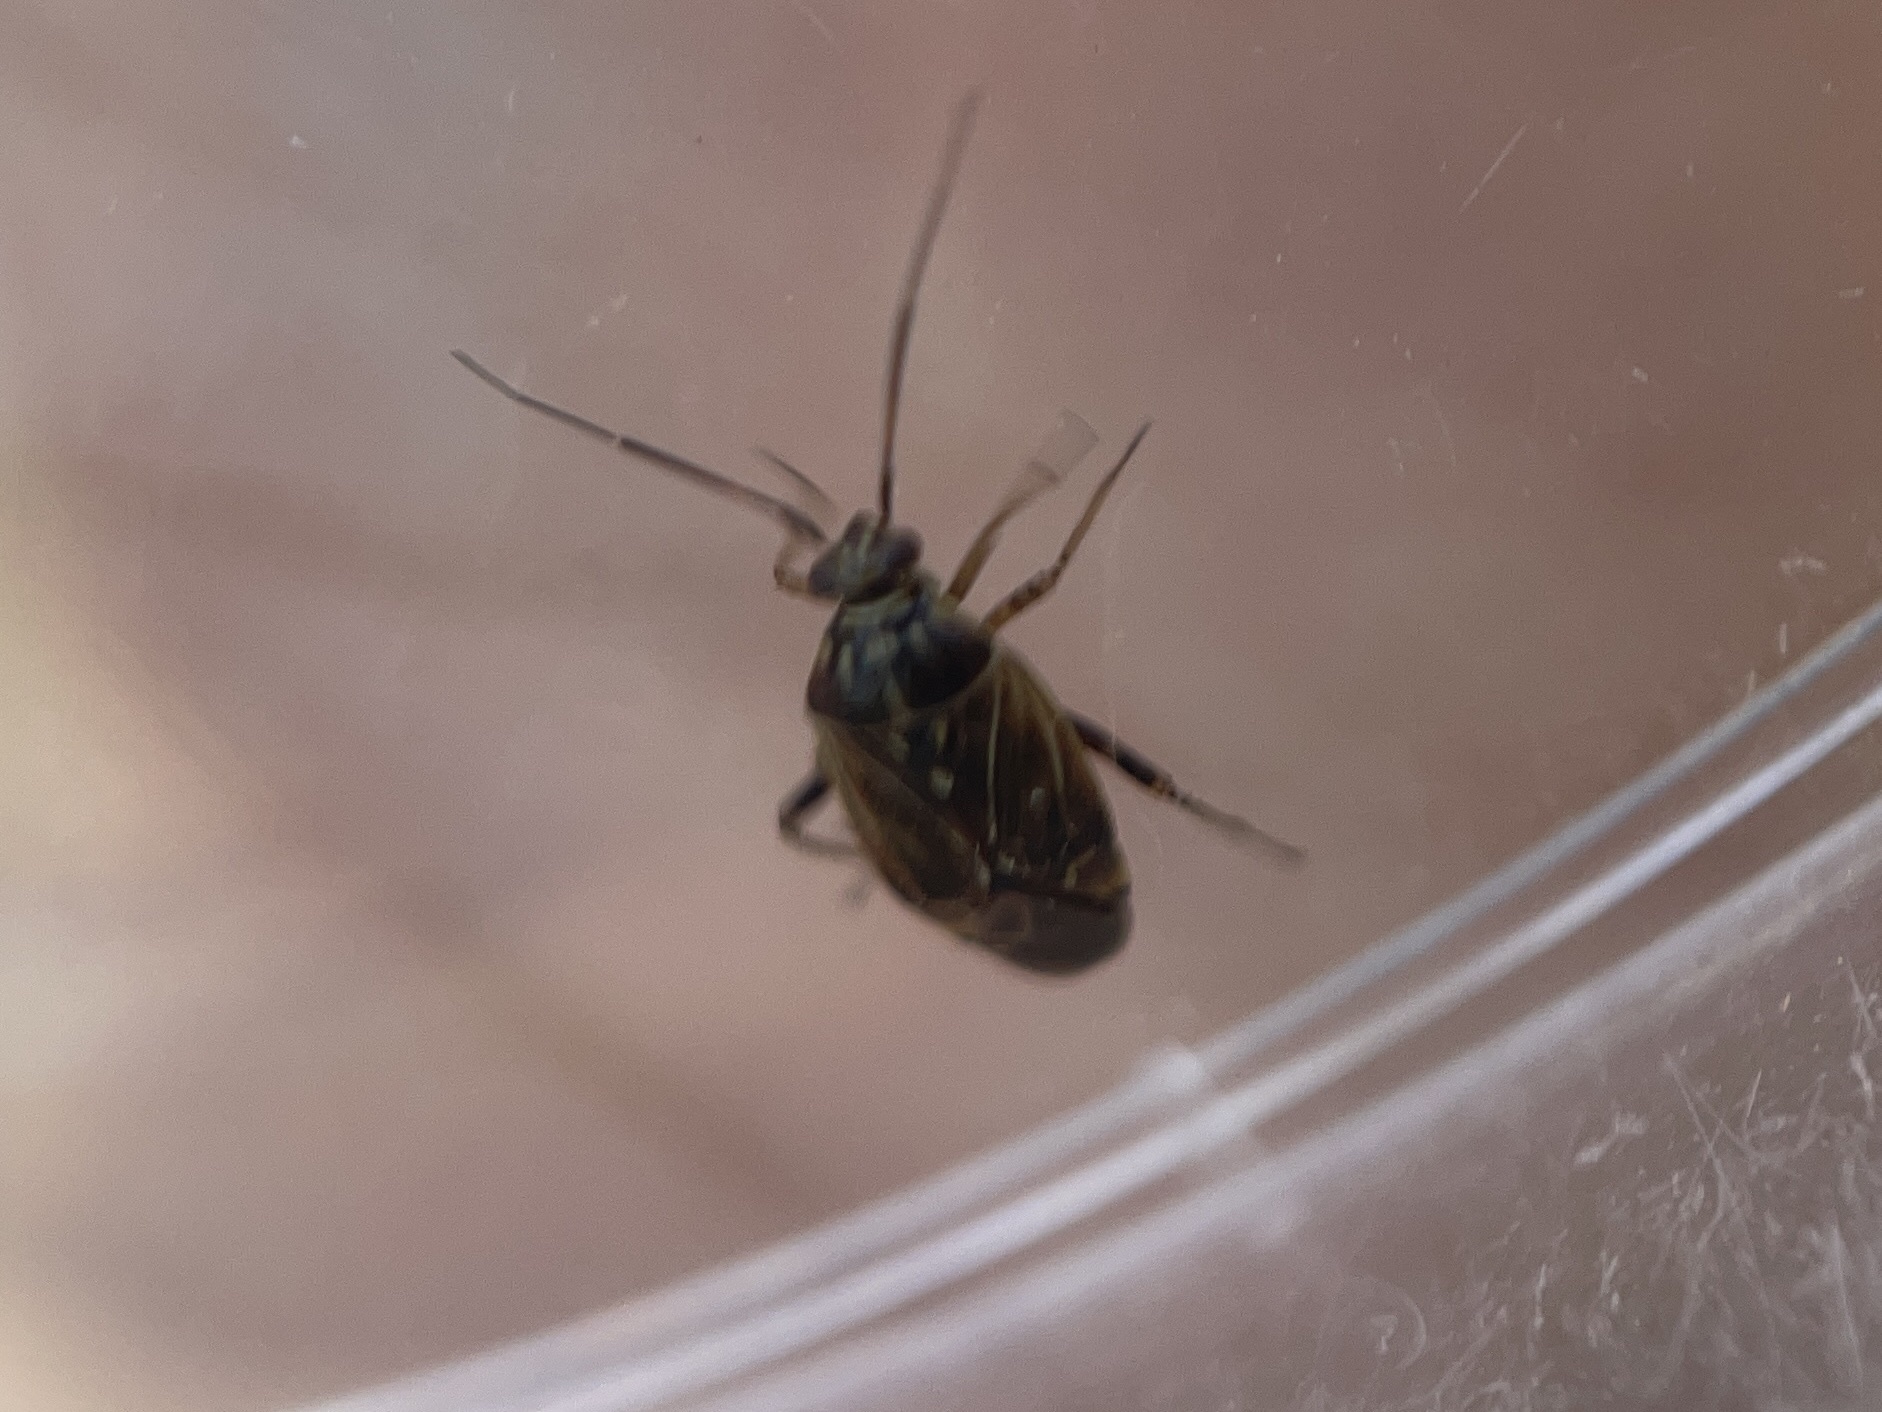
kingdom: Animalia
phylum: Arthropoda
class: Insecta
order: Hemiptera
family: Miridae
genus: Lygus
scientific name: Lygus lineolaris
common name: North american tarnished plant bug
